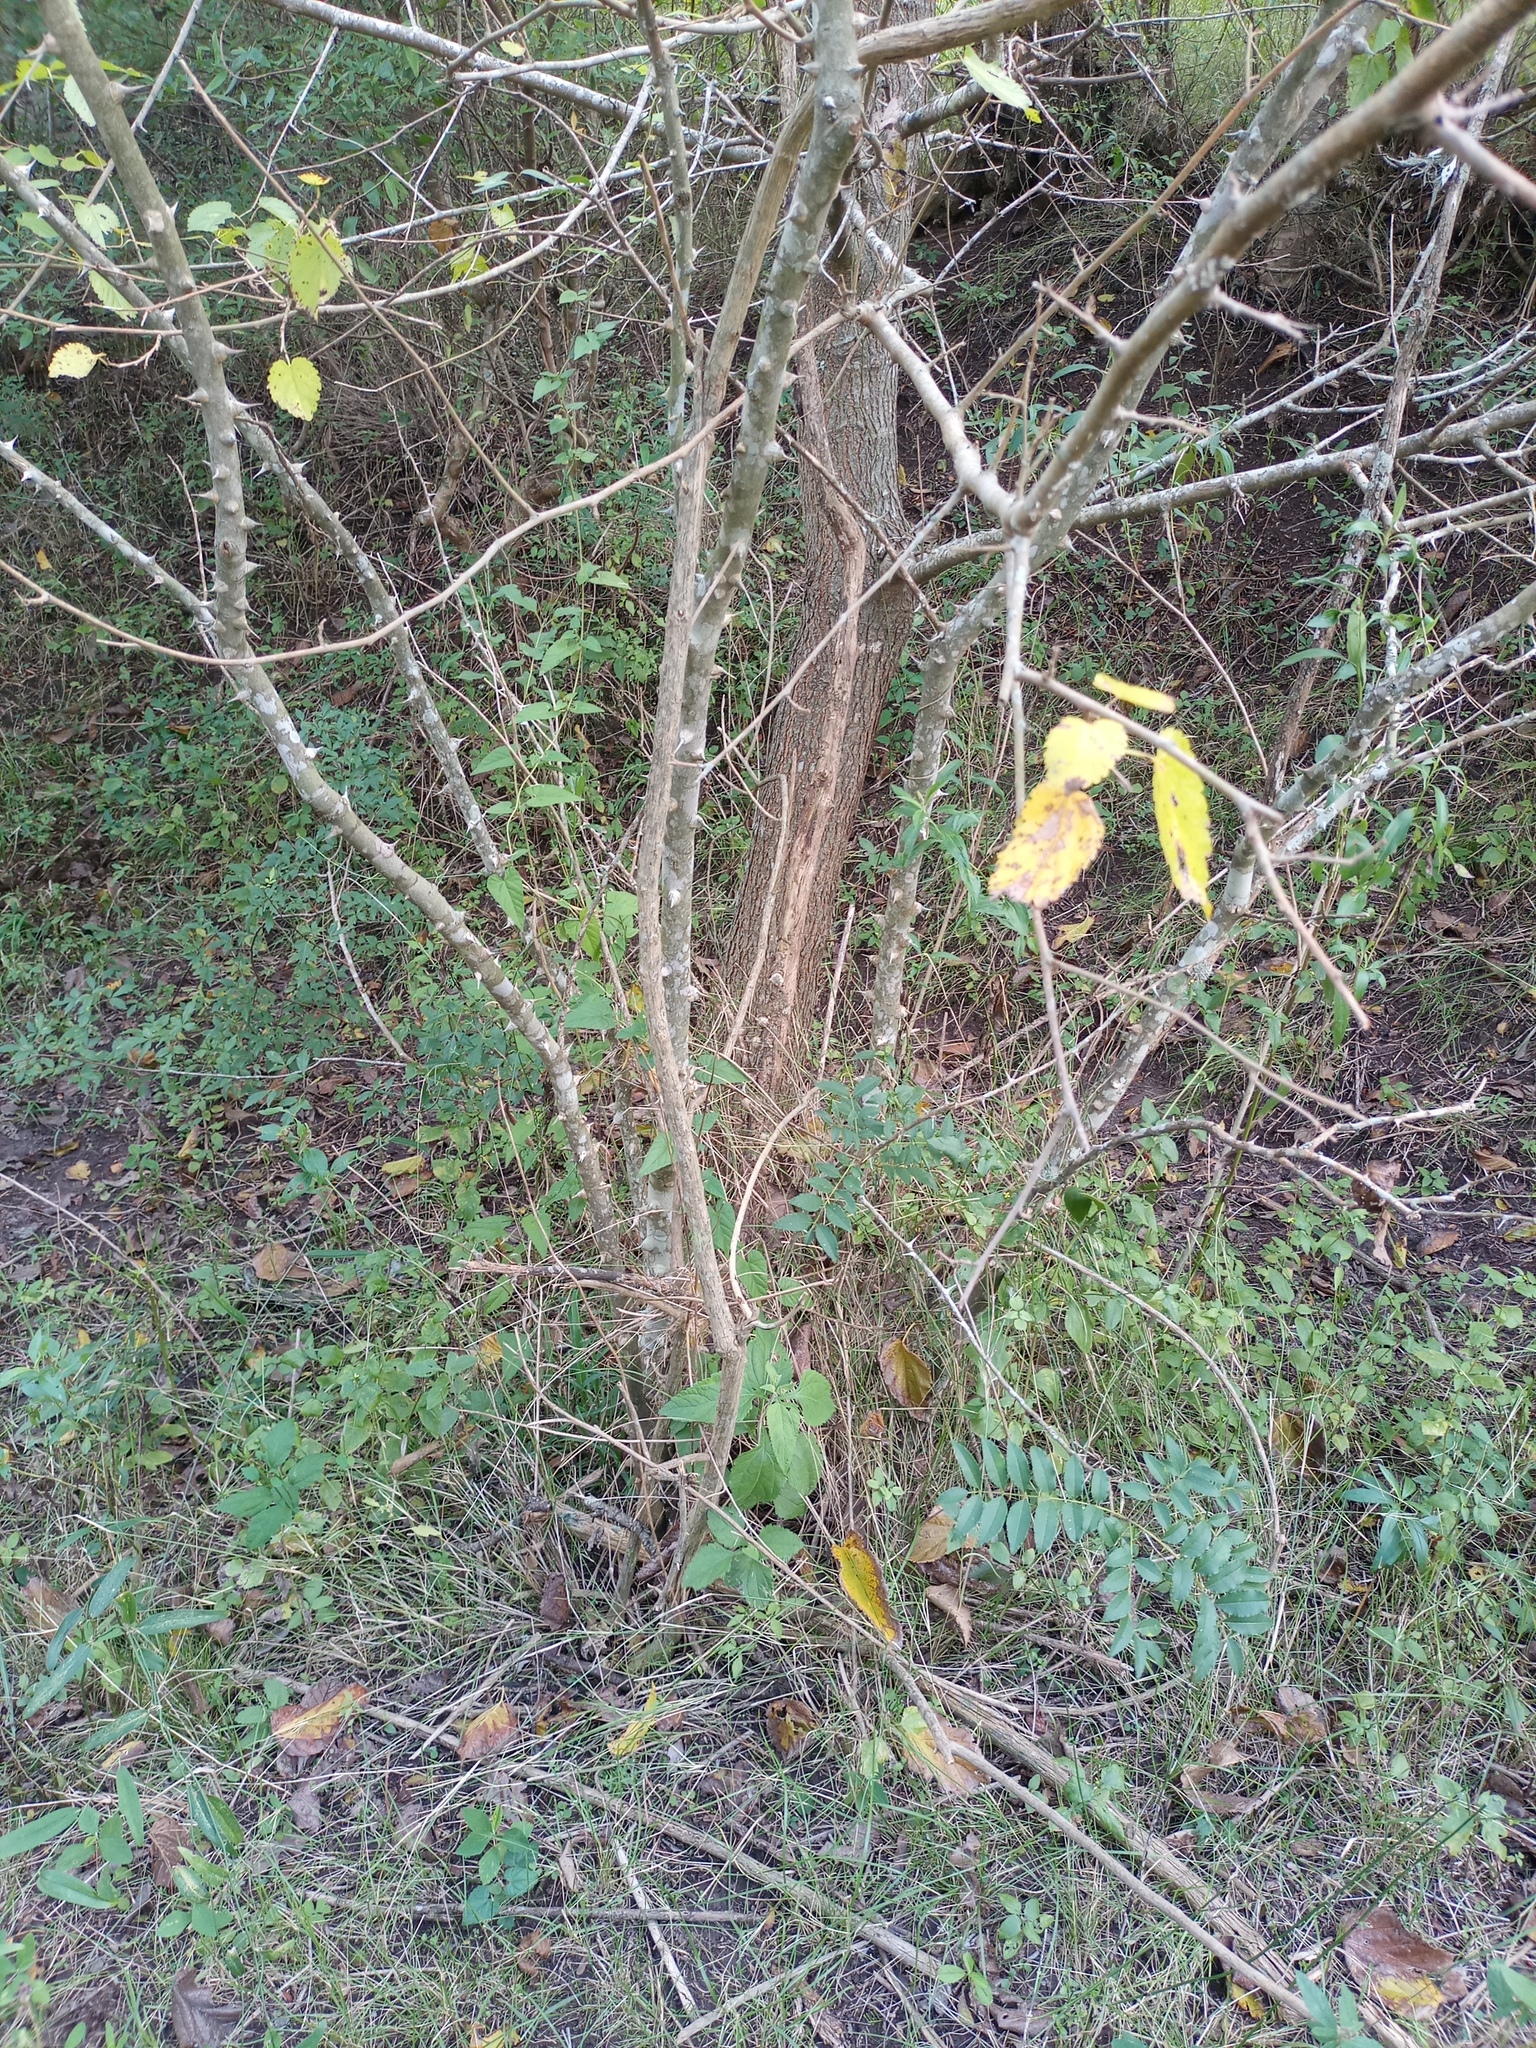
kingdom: Plantae
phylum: Tracheophyta
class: Magnoliopsida
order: Sapindales
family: Rutaceae
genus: Zanthoxylum
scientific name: Zanthoxylum rhoifolium
